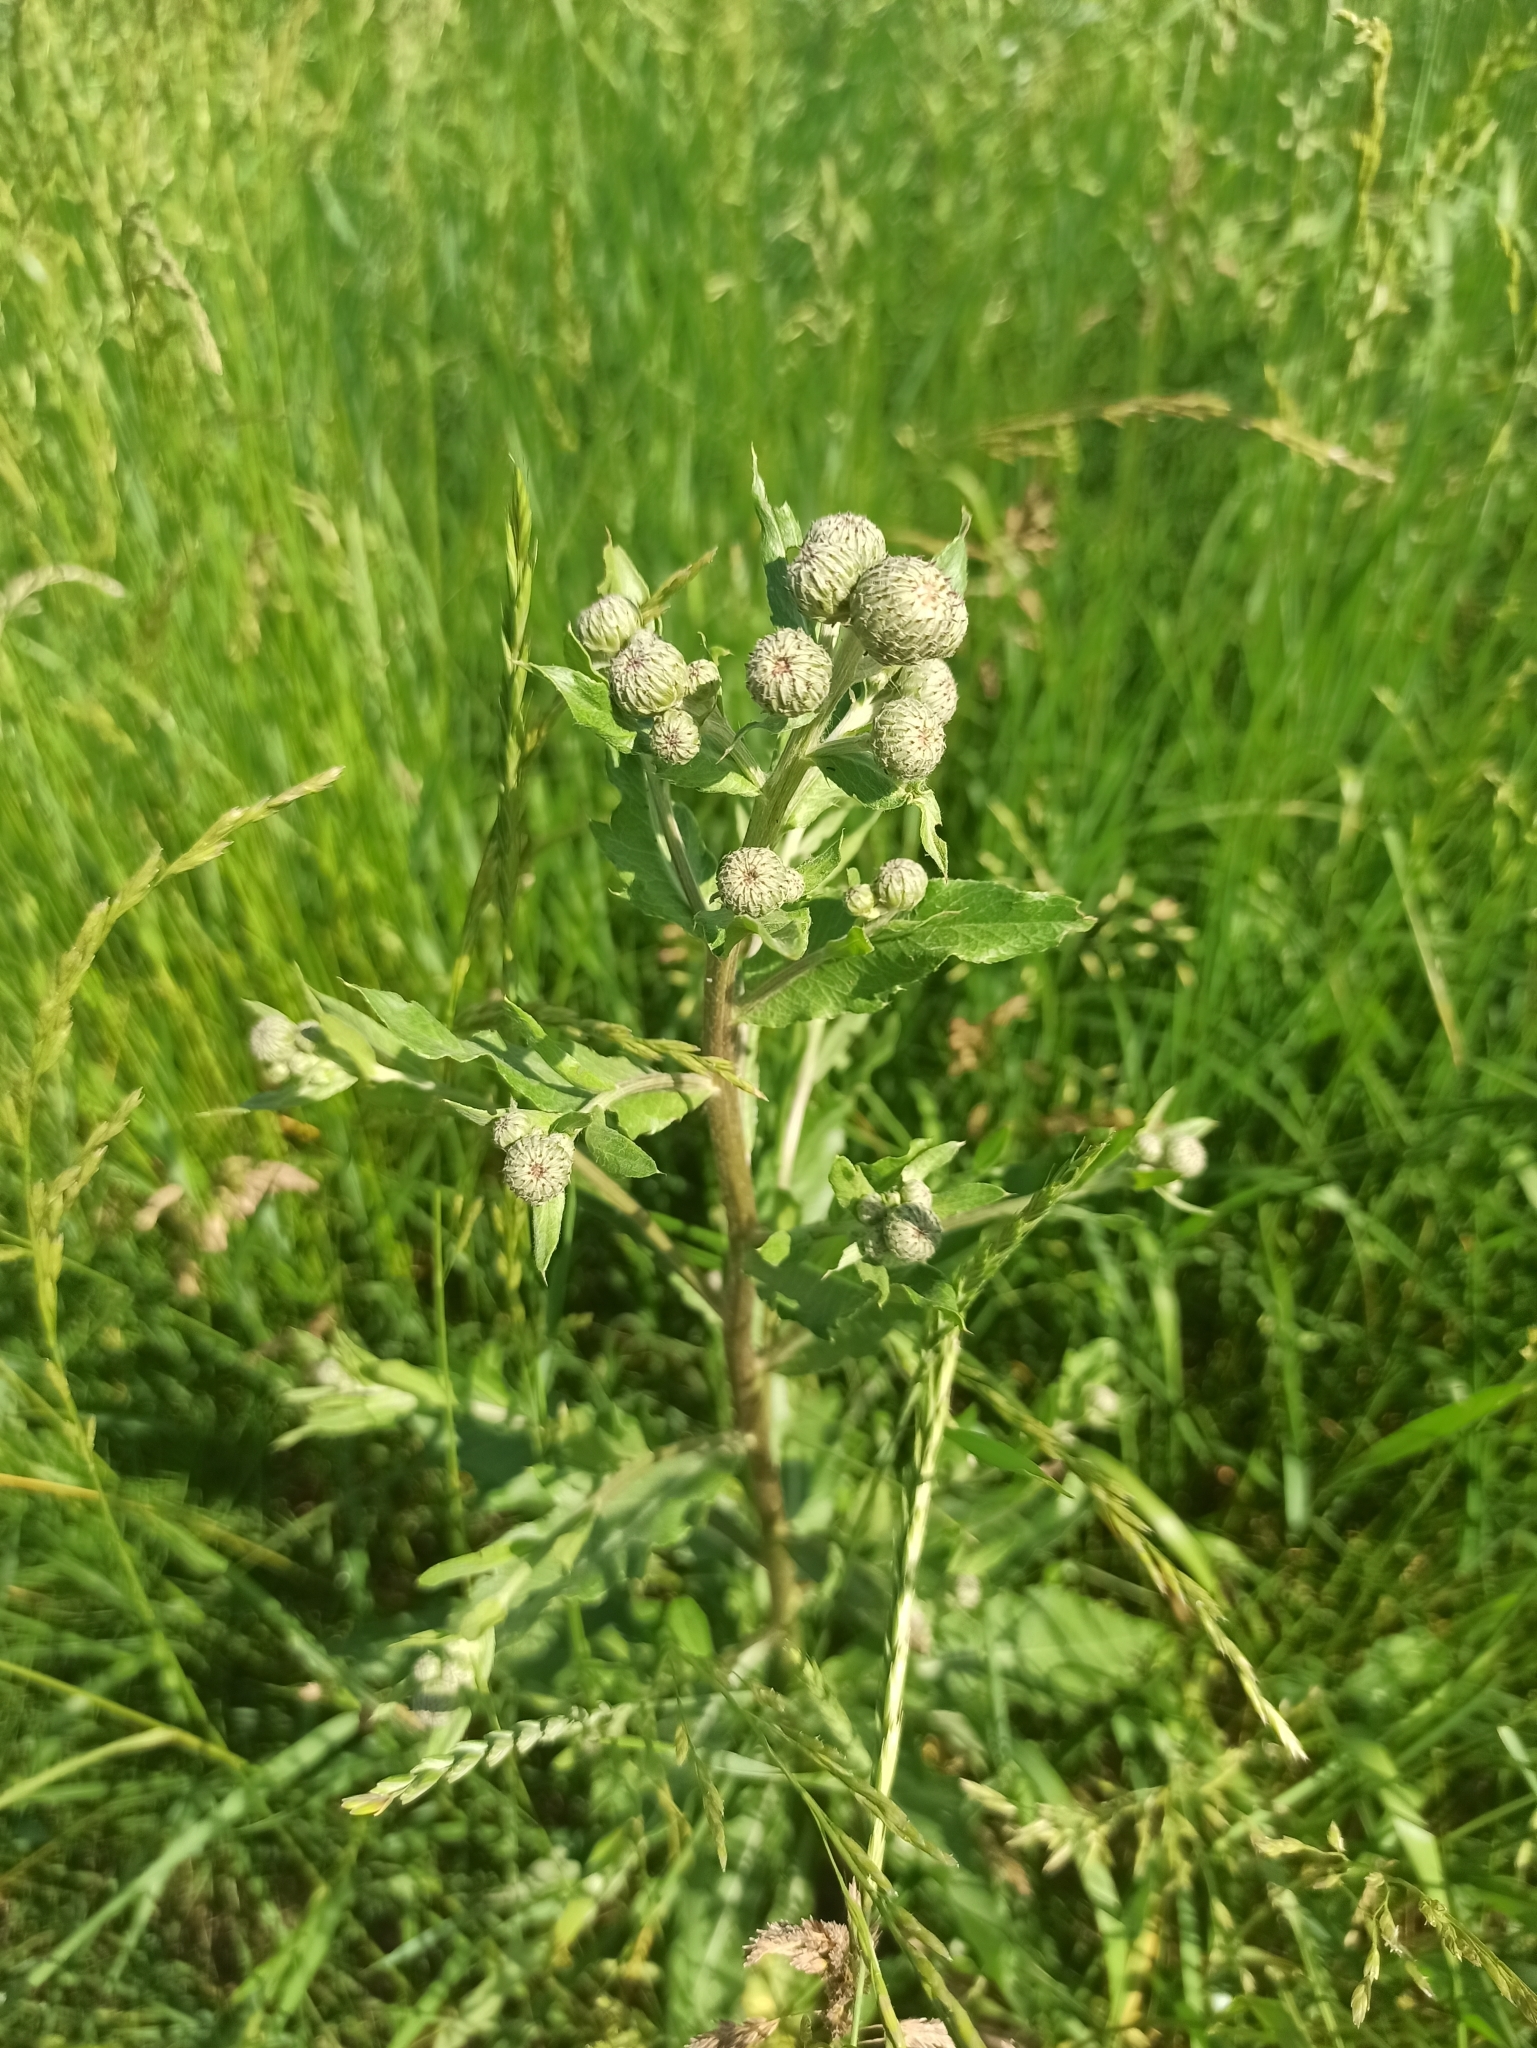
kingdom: Plantae
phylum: Tracheophyta
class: Magnoliopsida
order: Asterales
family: Asteraceae
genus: Cirsium
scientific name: Cirsium arvense
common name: Creeping thistle
